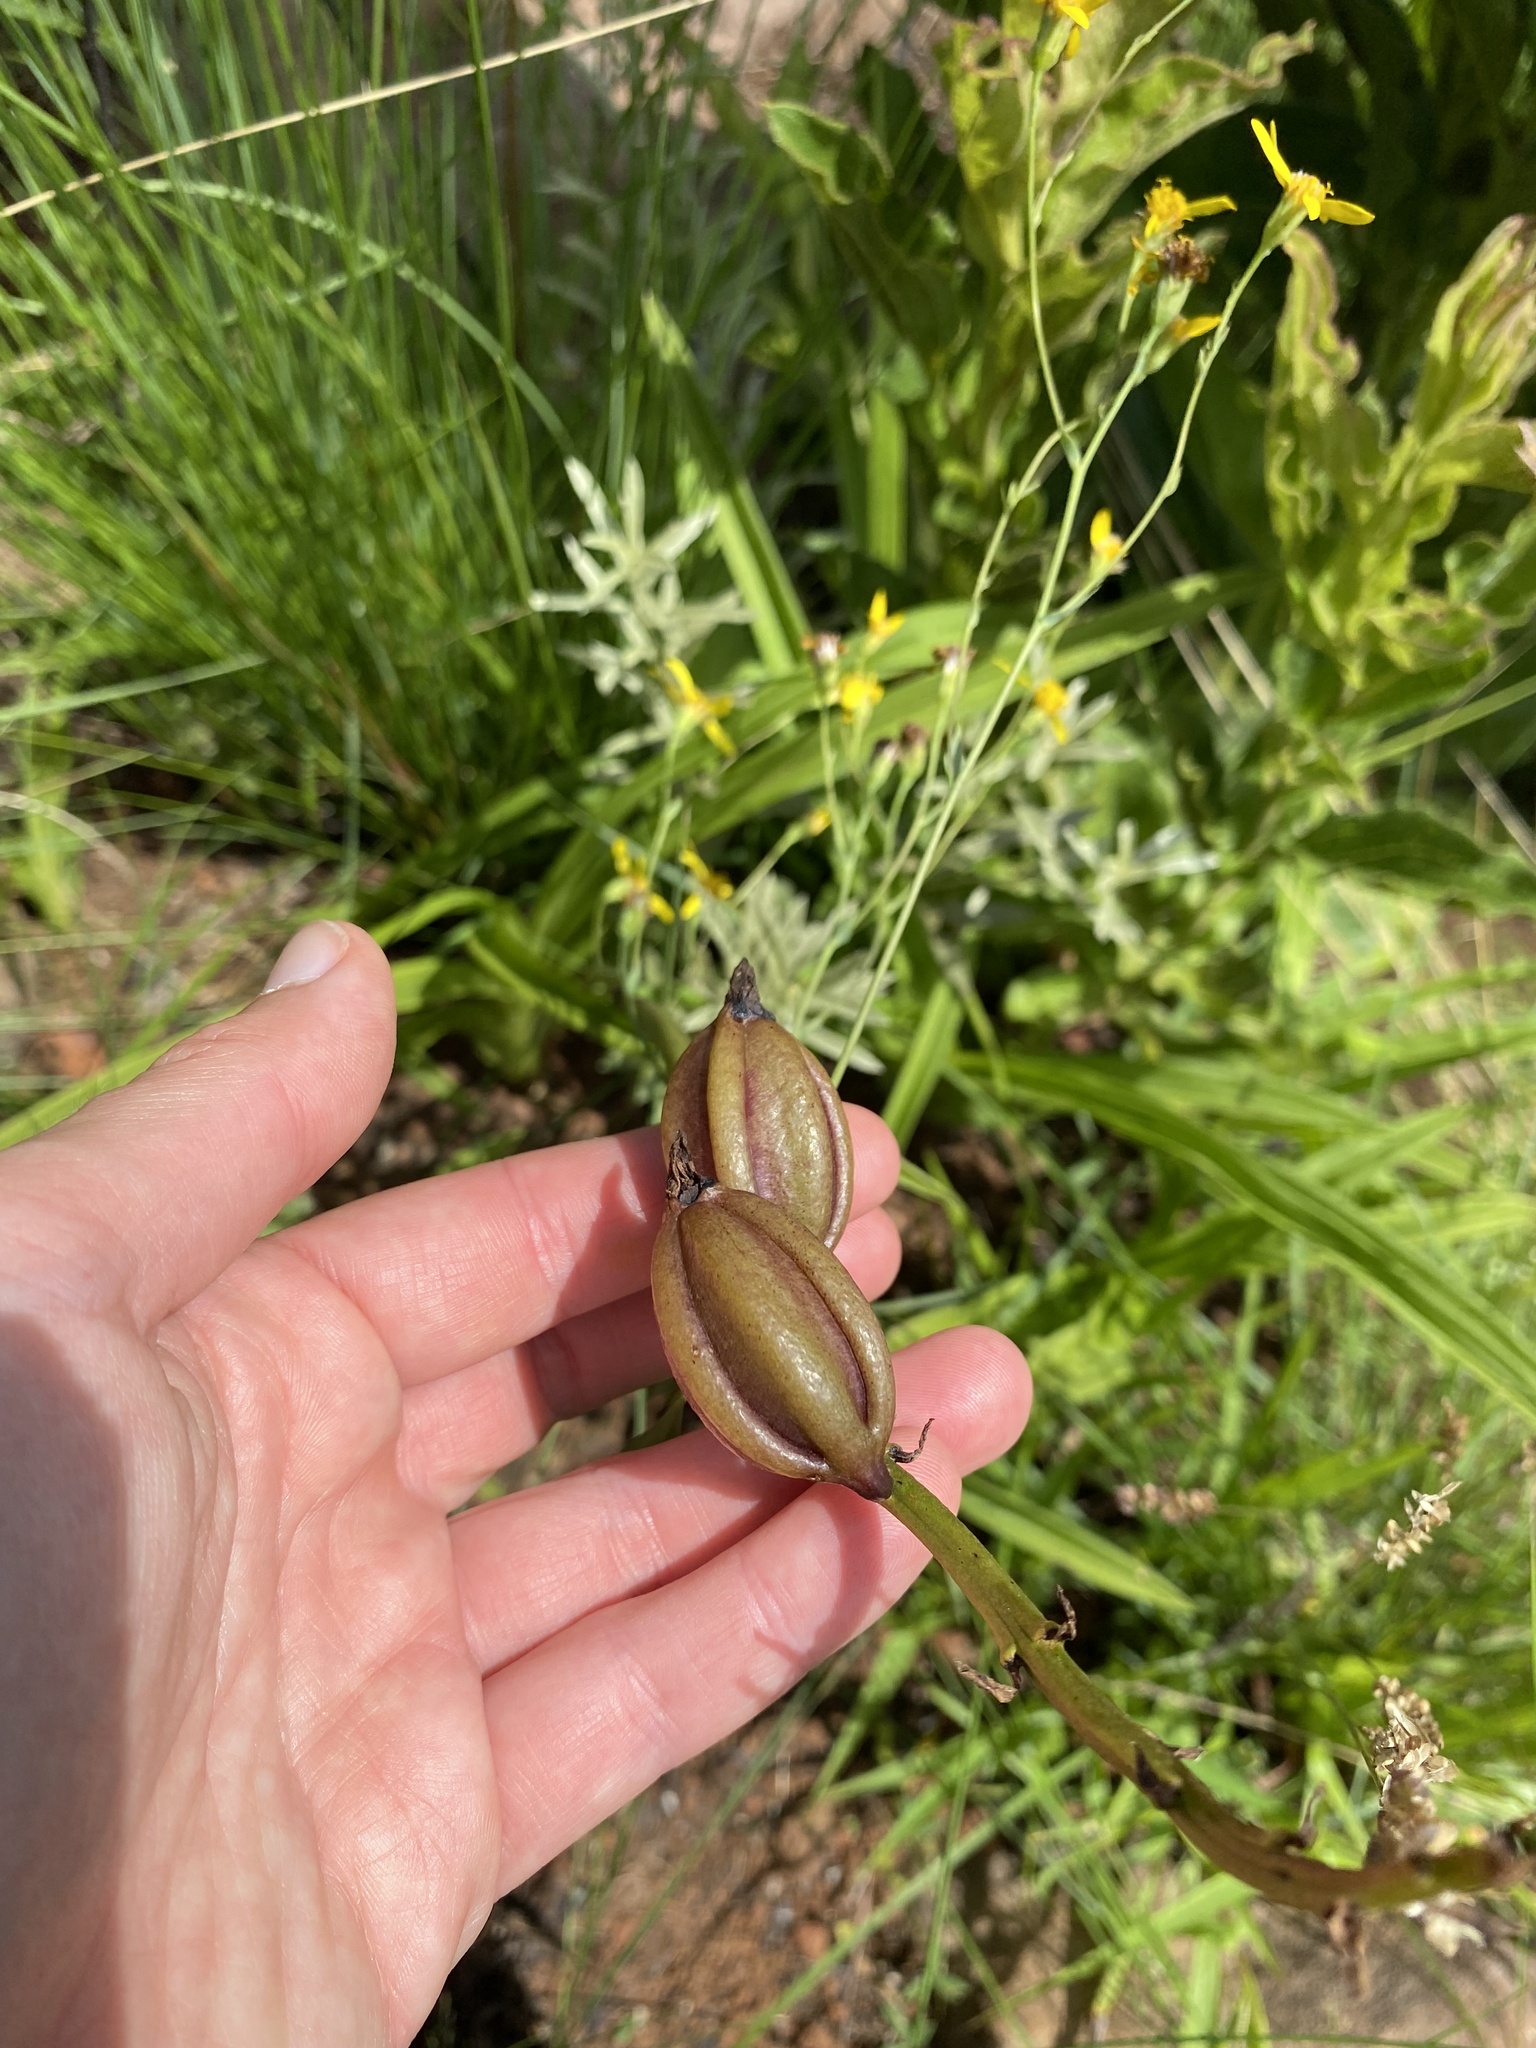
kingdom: Plantae
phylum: Tracheophyta
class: Liliopsida
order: Asparagales
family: Orchidaceae
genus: Eulophia
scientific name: Eulophia parviflora
